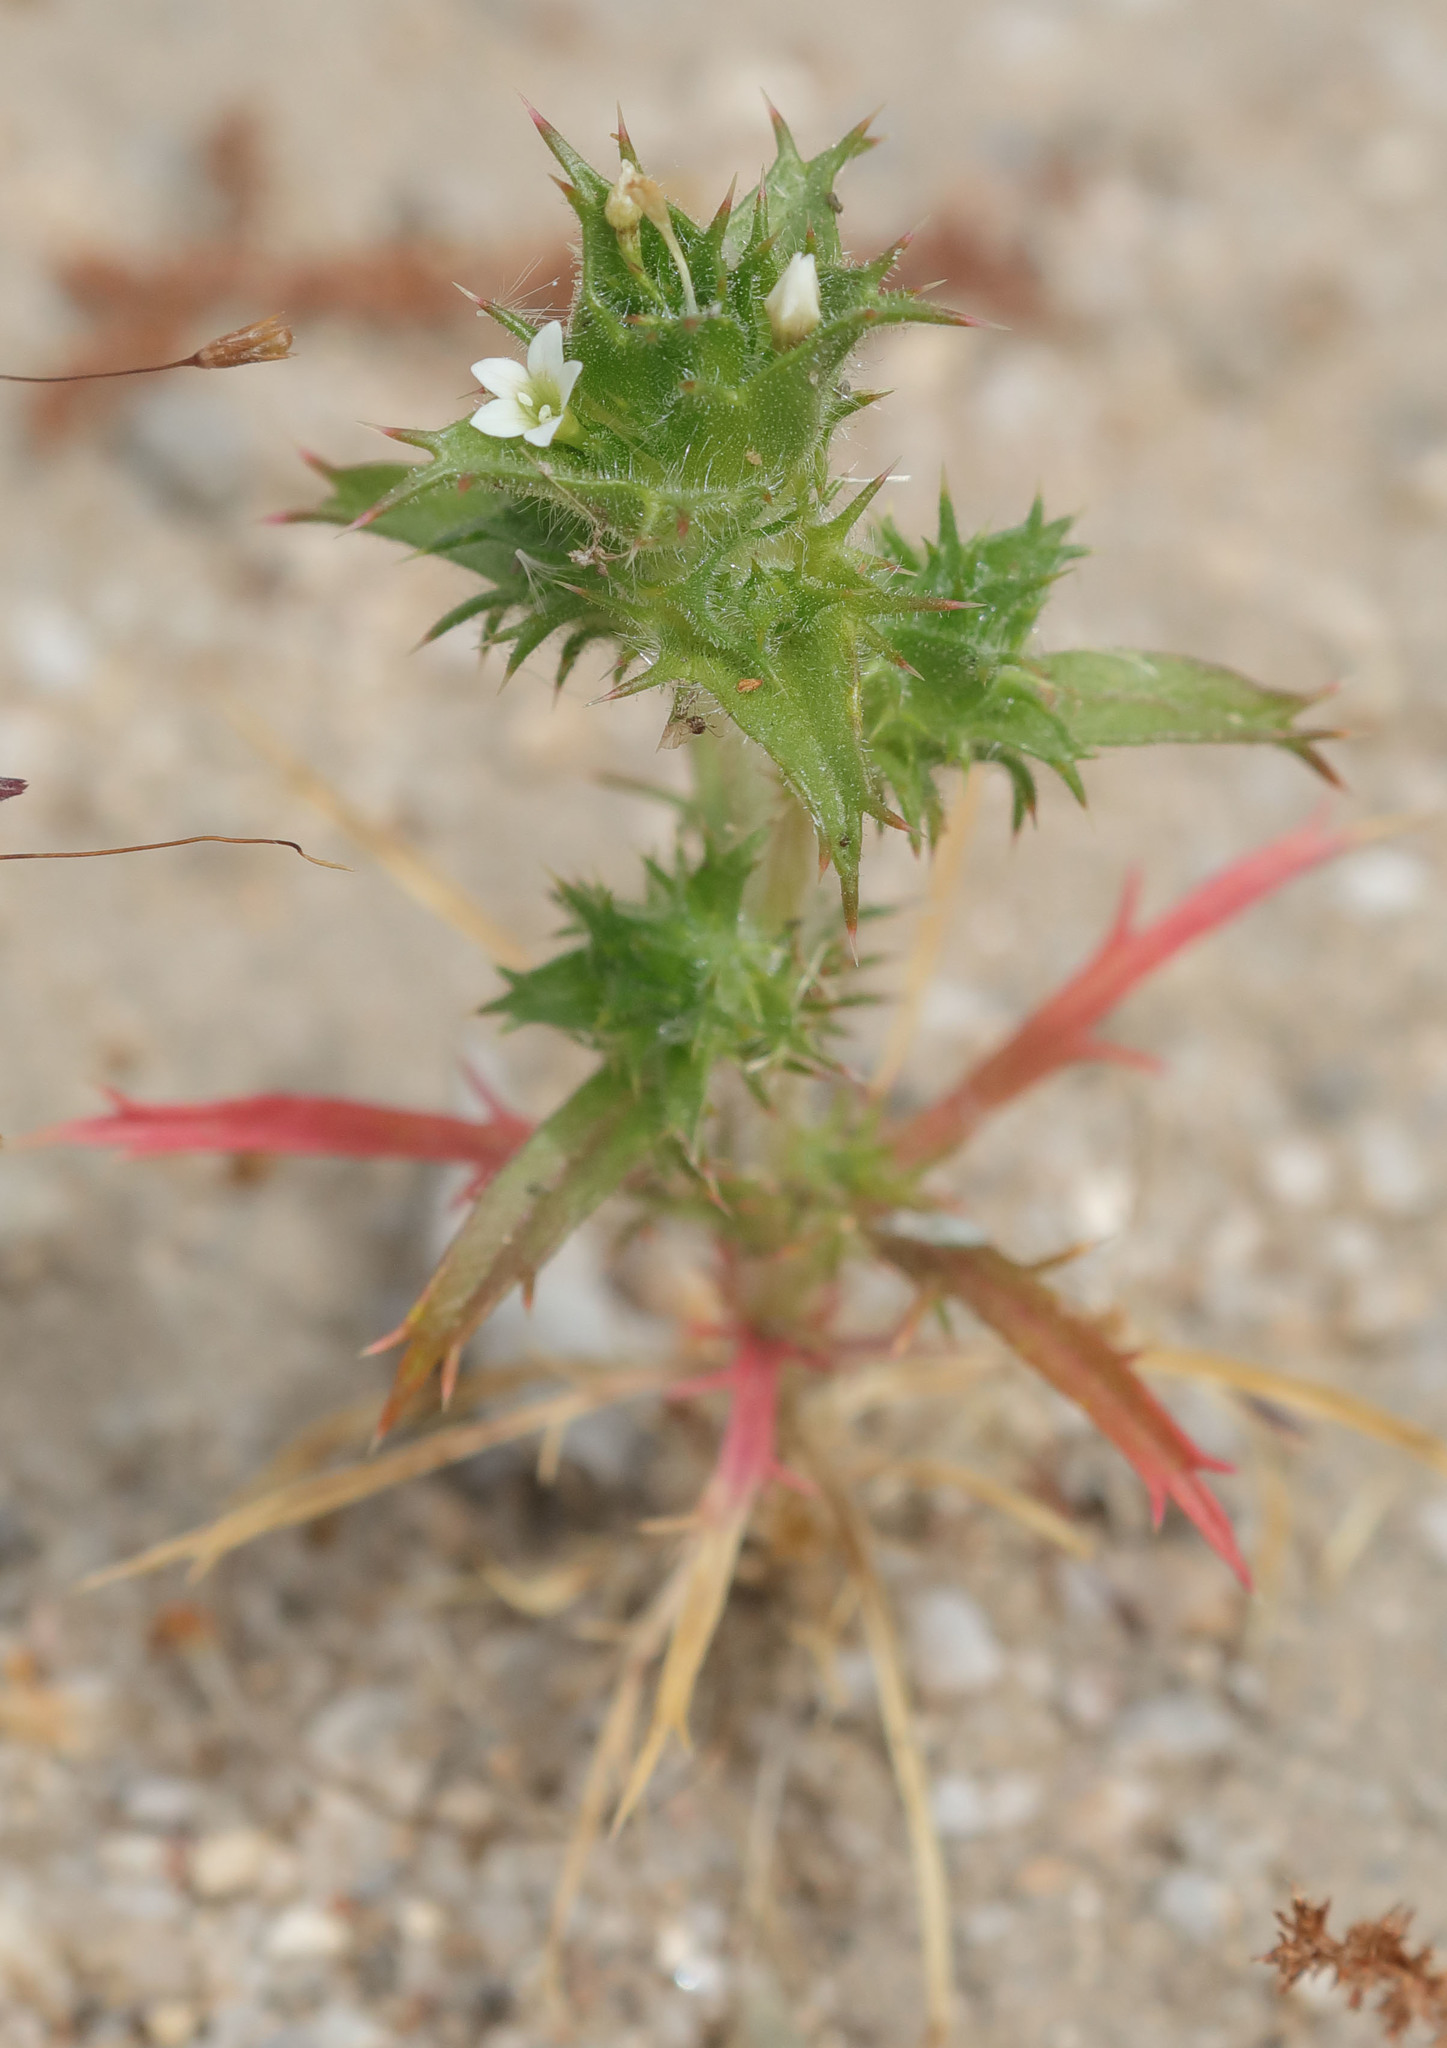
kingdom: Plantae
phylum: Tracheophyta
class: Magnoliopsida
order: Ericales
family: Polemoniaceae
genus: Navarretia
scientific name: Navarretia atractyloides
